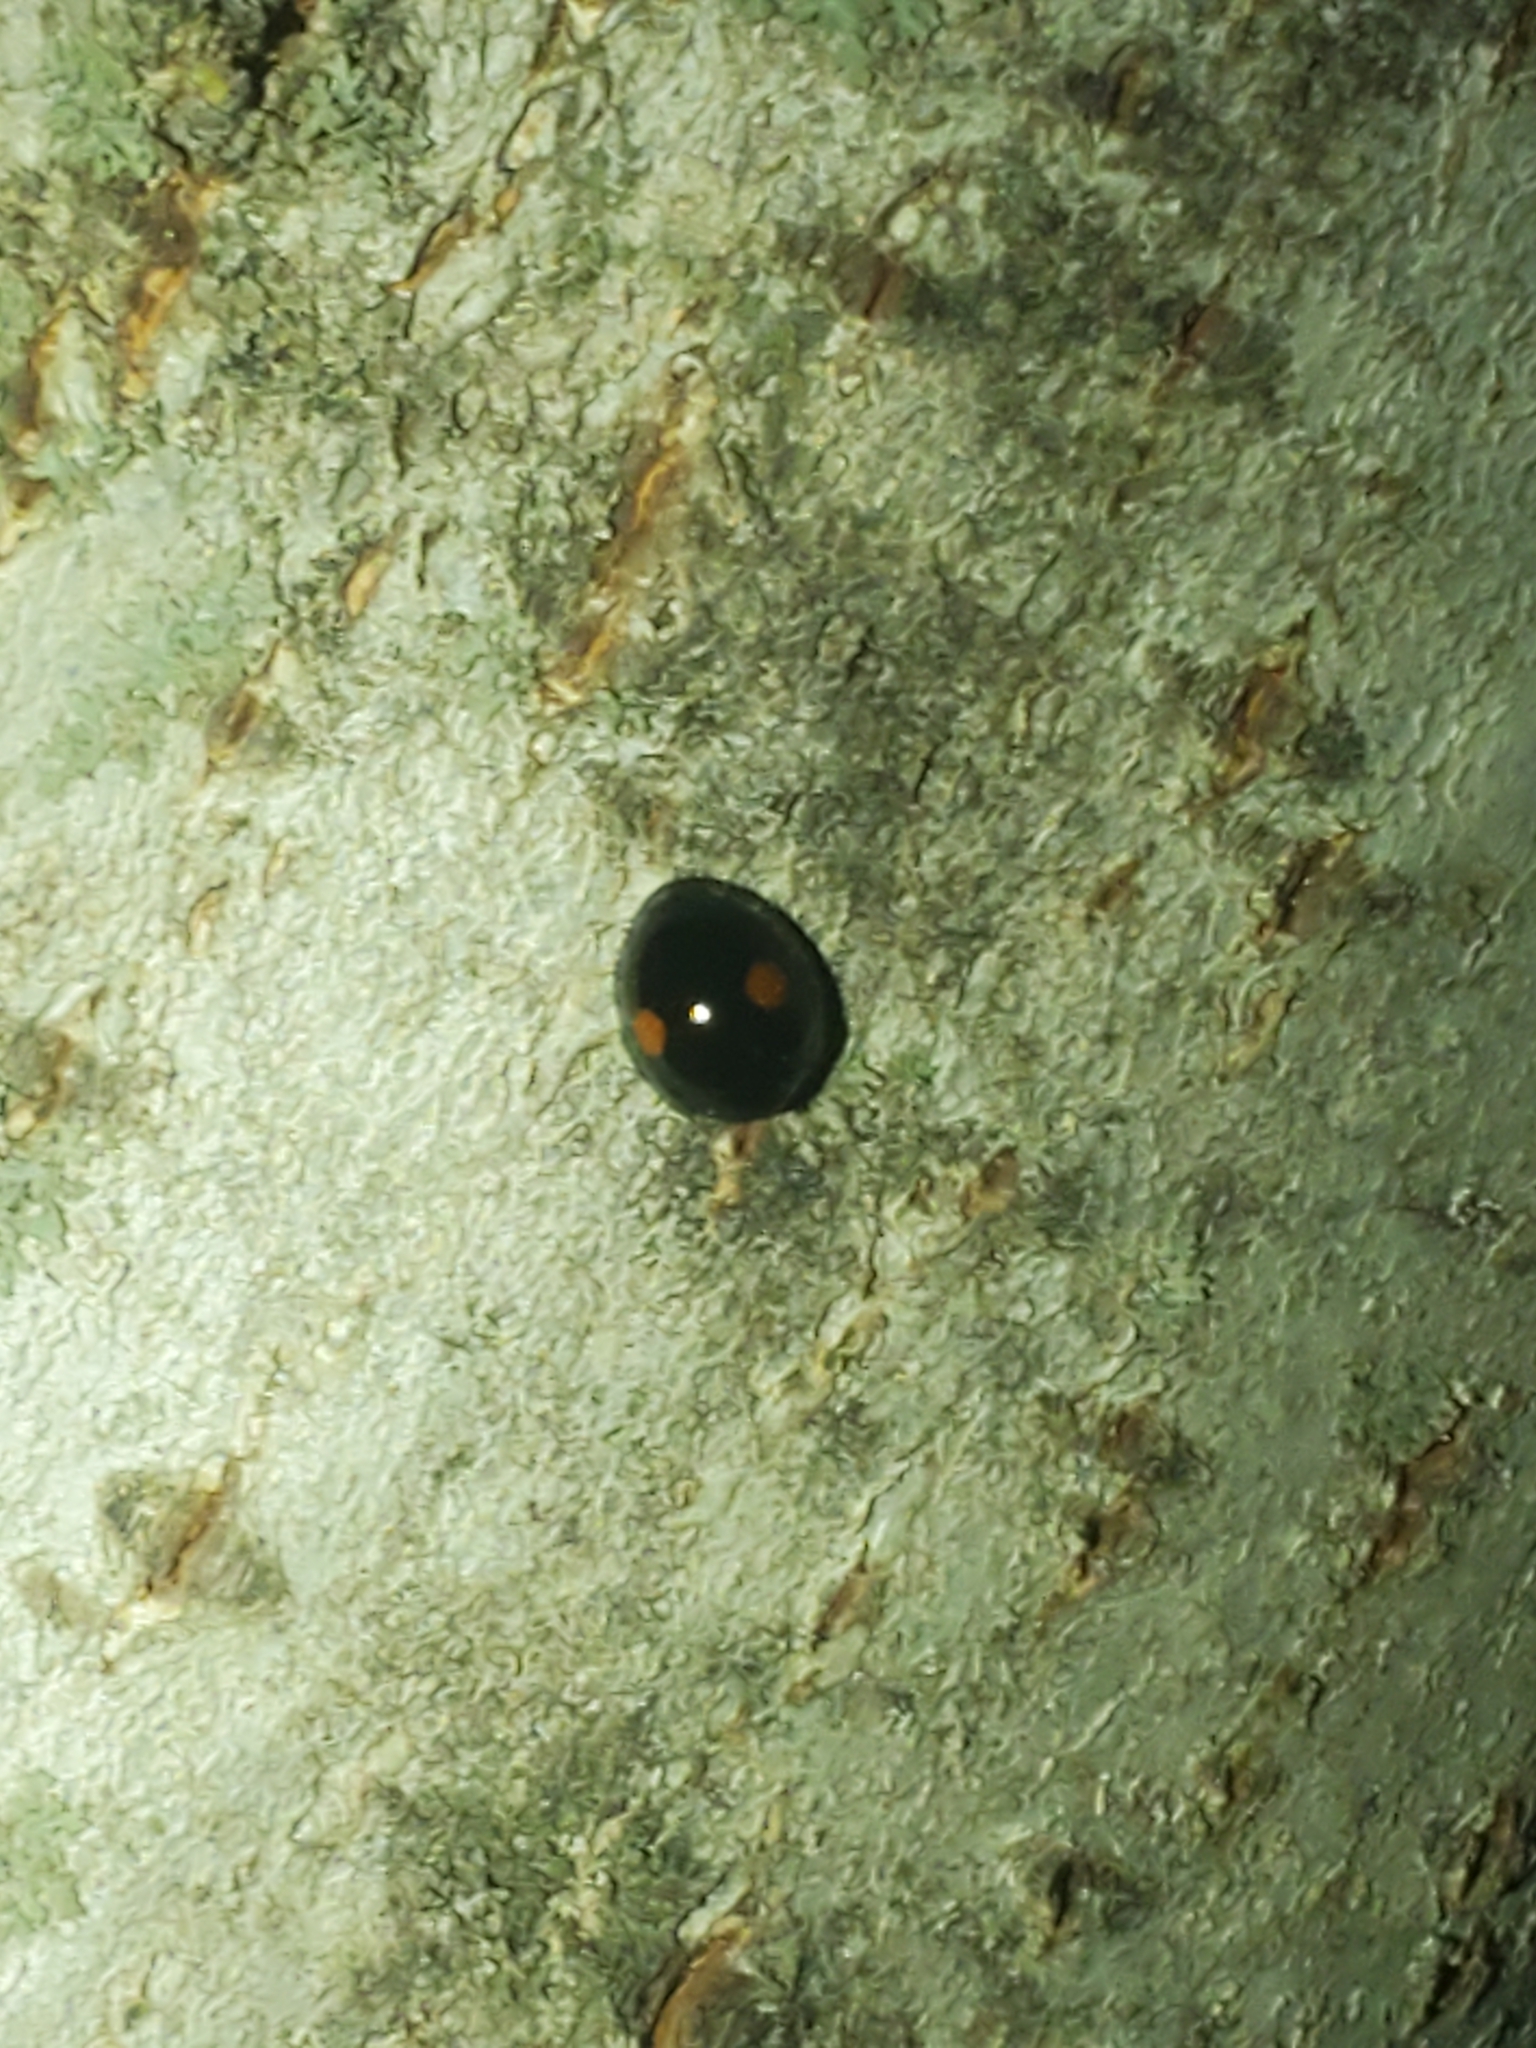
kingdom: Animalia
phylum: Arthropoda
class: Insecta
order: Coleoptera
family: Coccinellidae
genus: Chilocorus
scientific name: Chilocorus stigma
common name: Twicestabbed lady beetle
